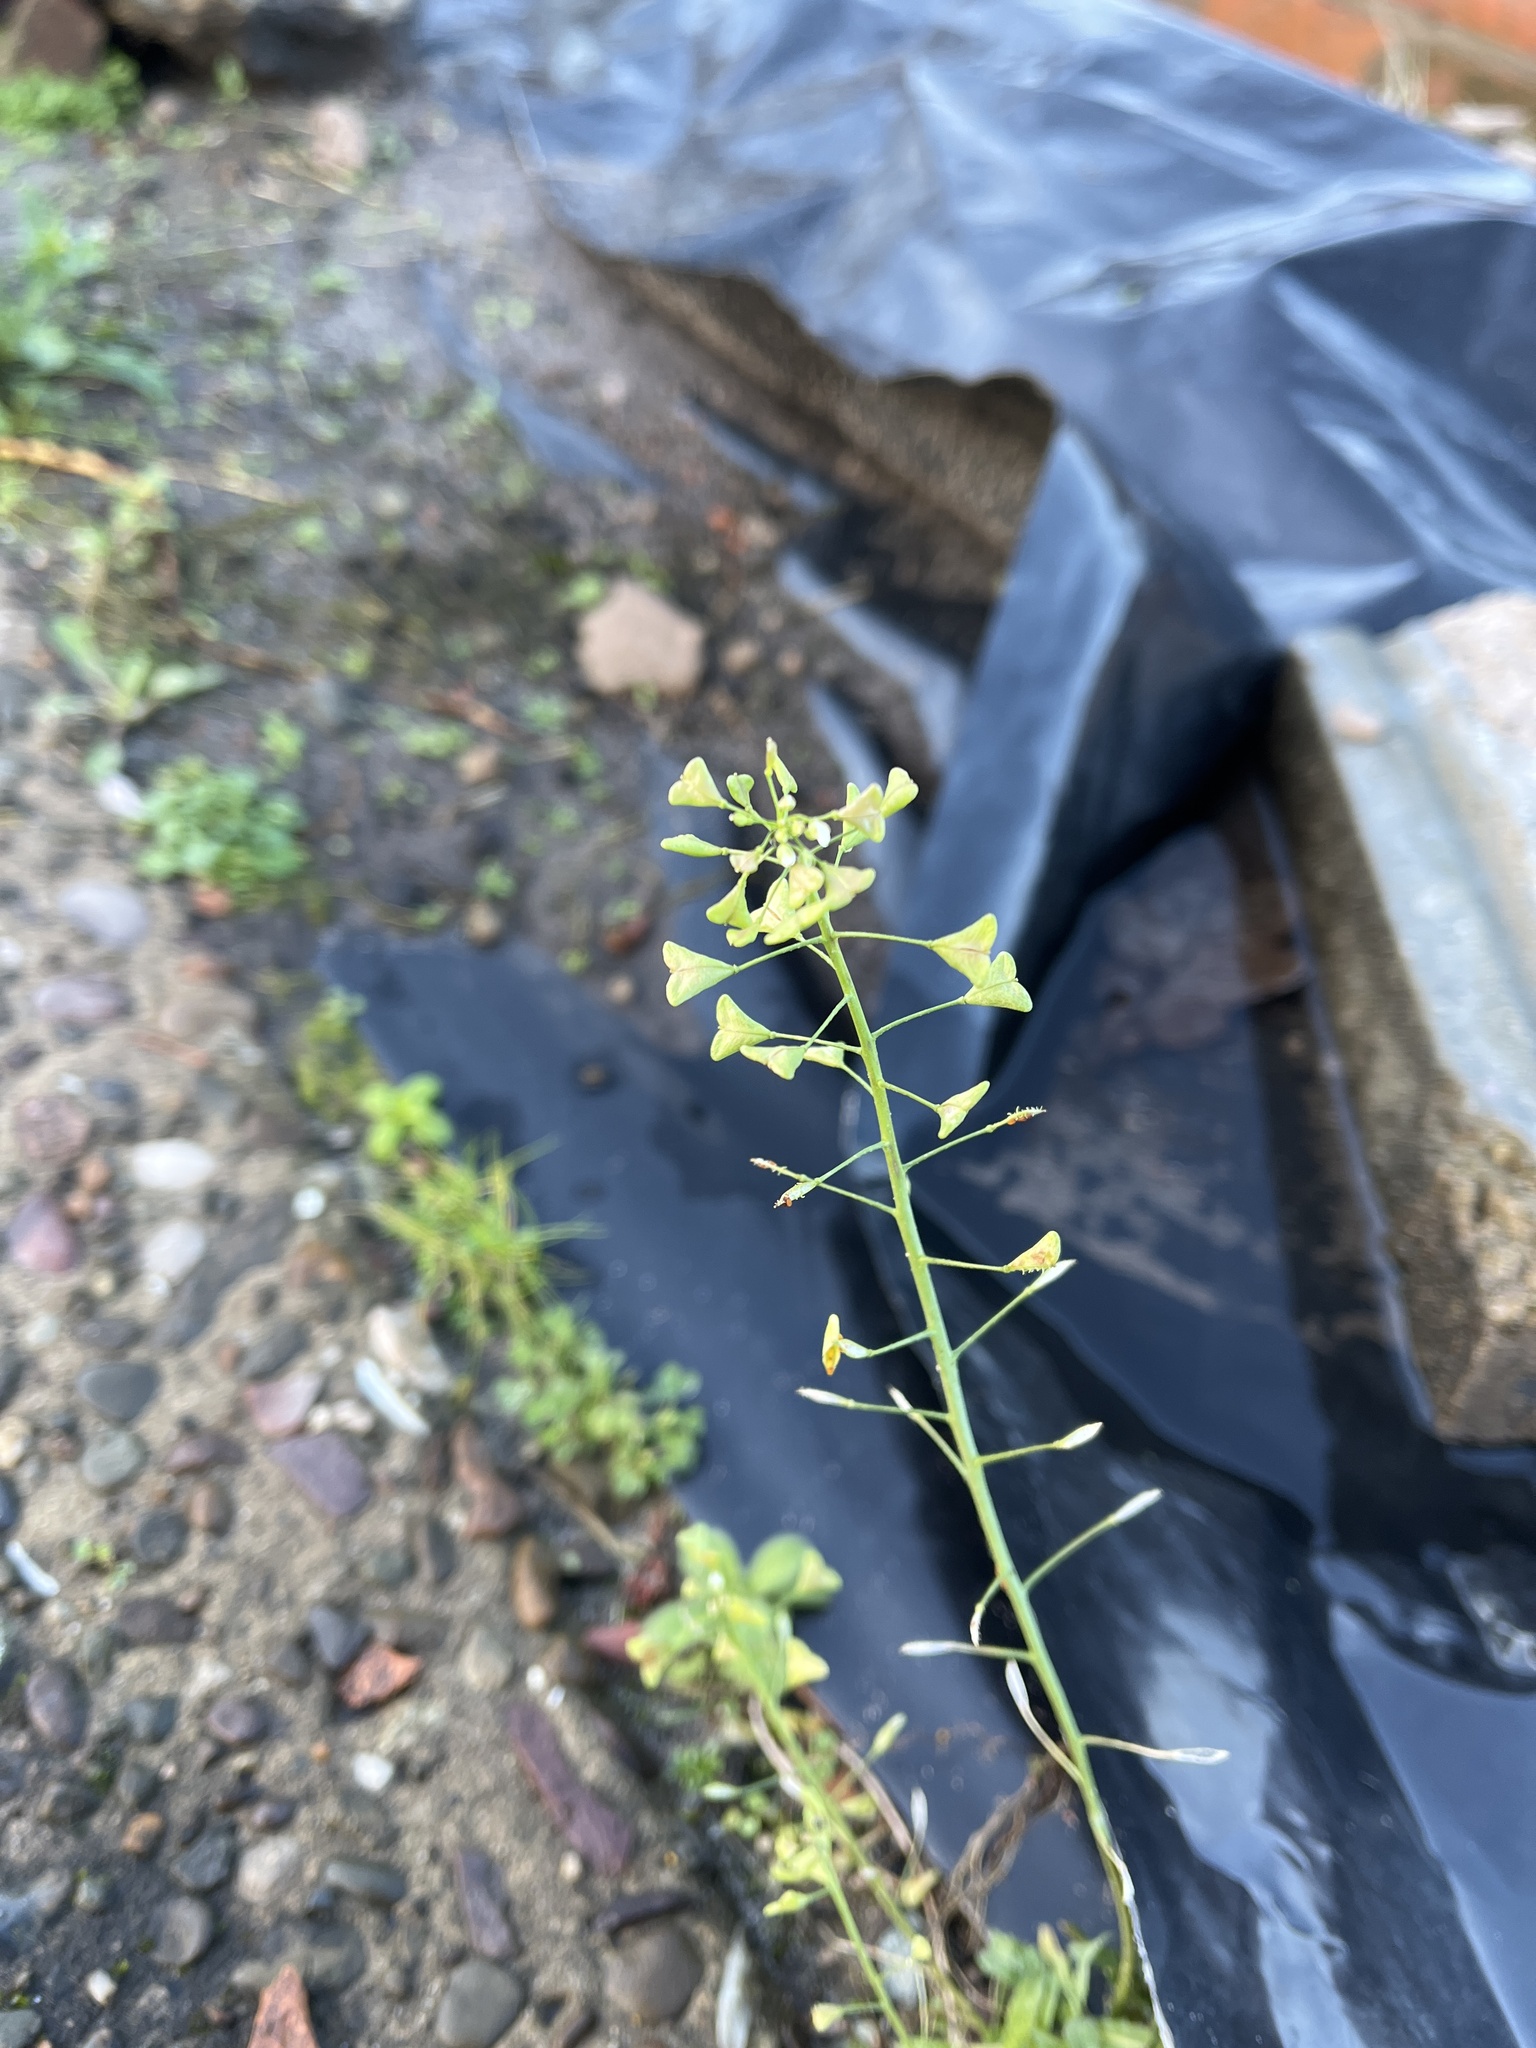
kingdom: Plantae
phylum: Tracheophyta
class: Magnoliopsida
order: Brassicales
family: Brassicaceae
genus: Capsella
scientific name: Capsella bursa-pastoris
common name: Shepherd's purse
